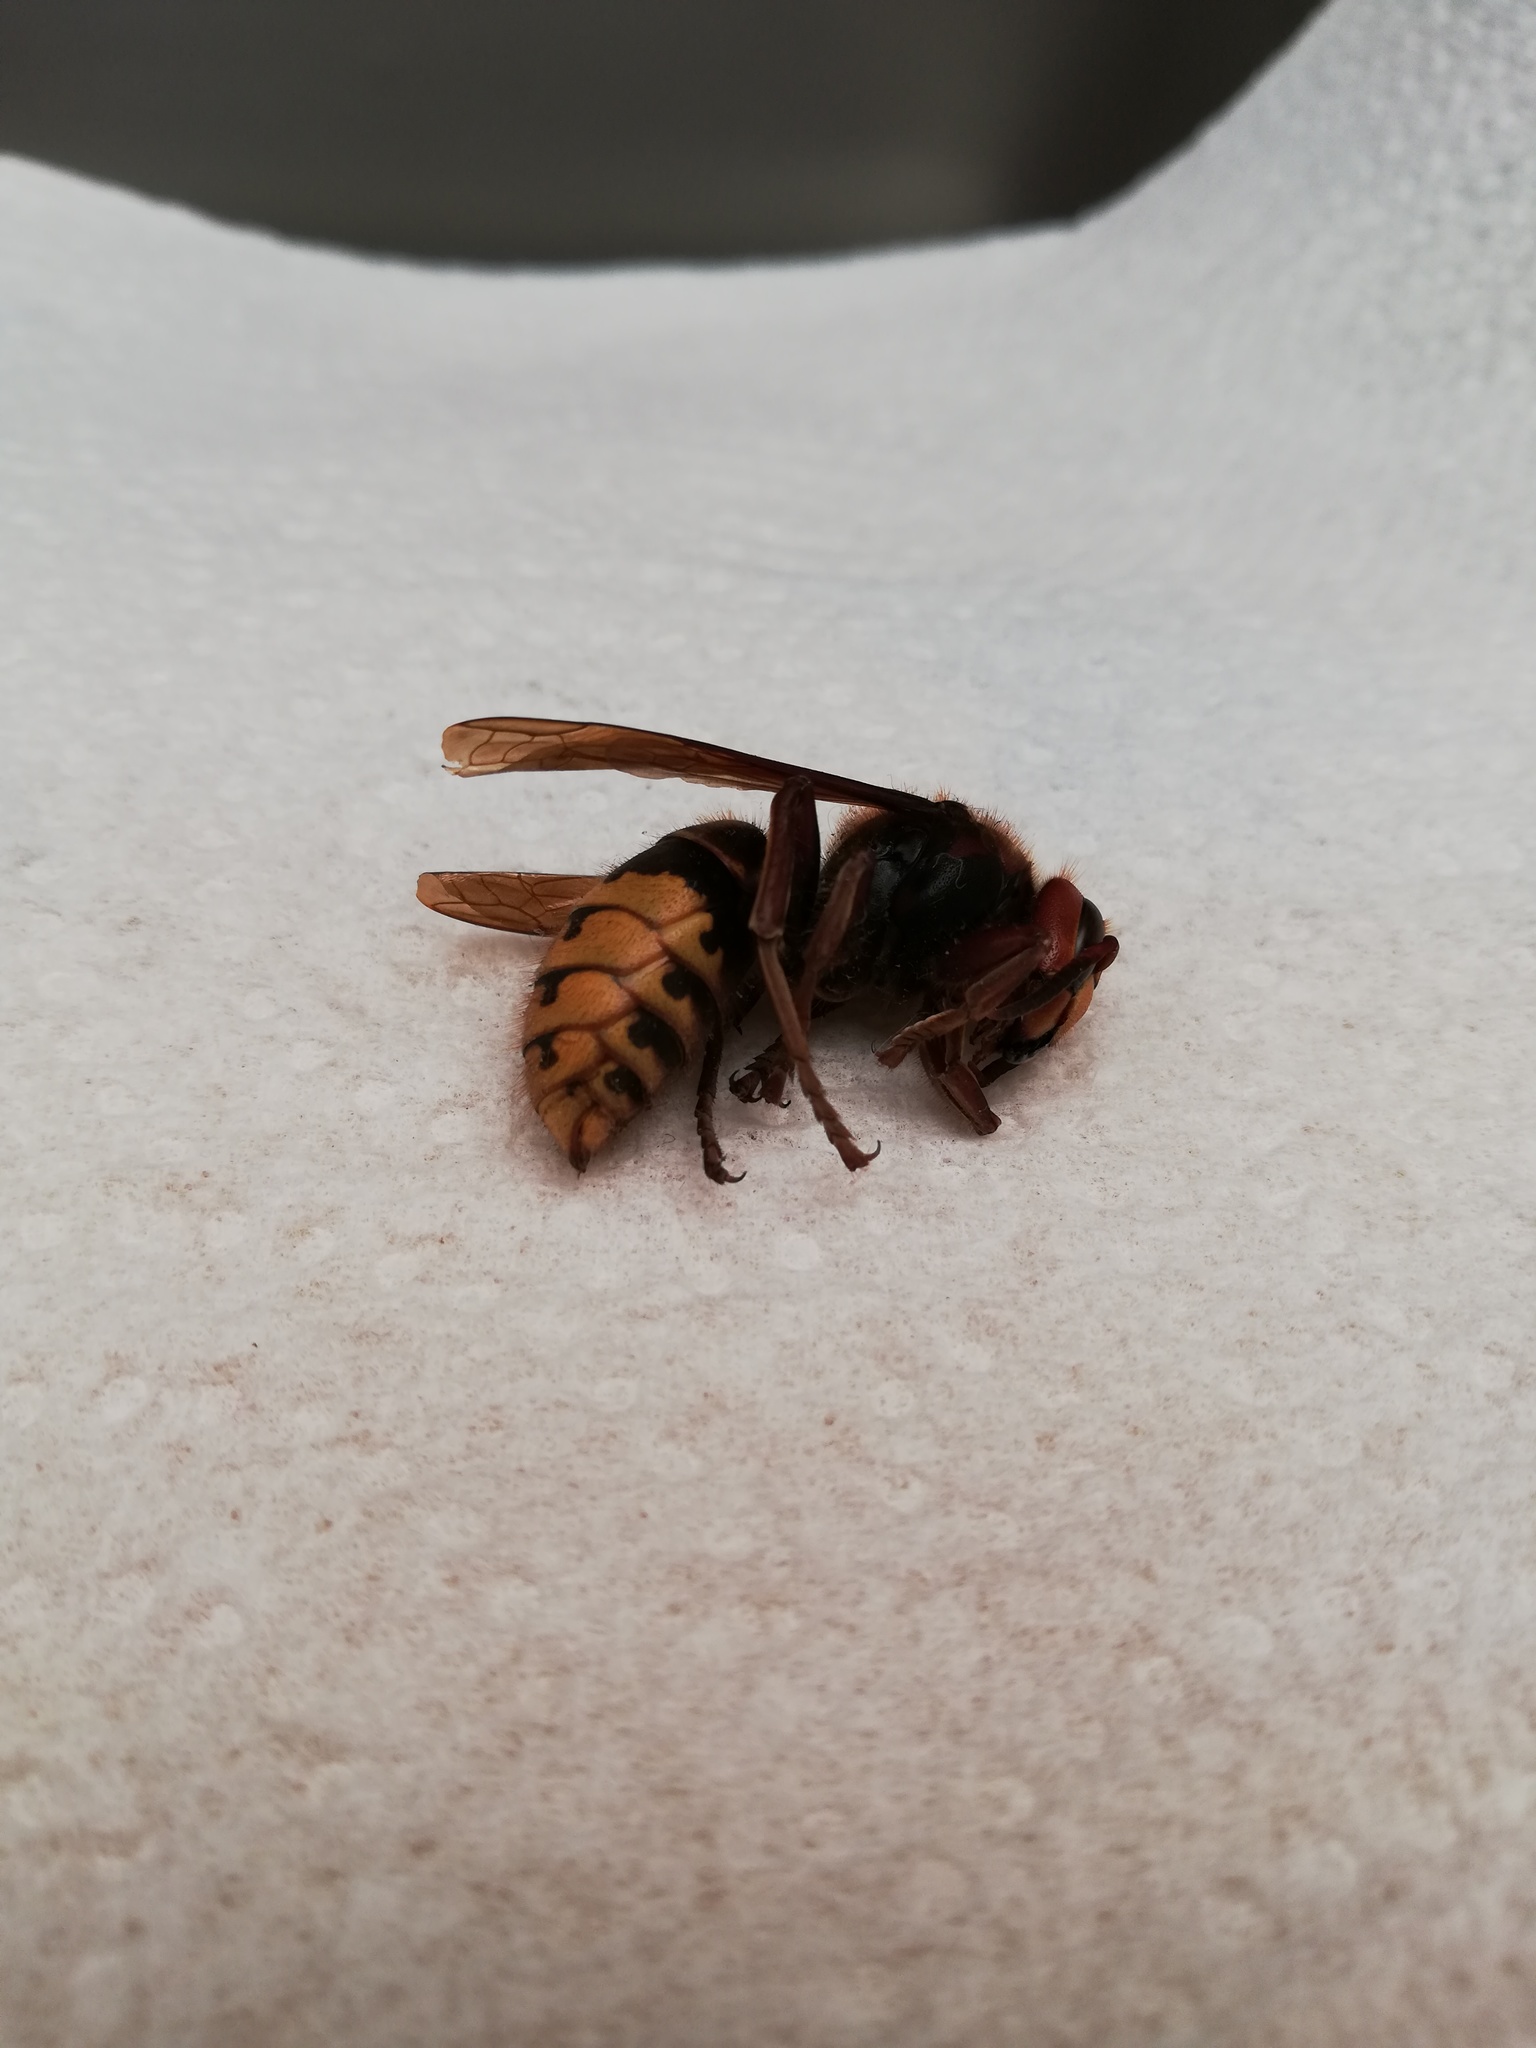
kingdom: Animalia
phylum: Arthropoda
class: Insecta
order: Hymenoptera
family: Vespidae
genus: Vespa
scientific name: Vespa crabro
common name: Hornet
